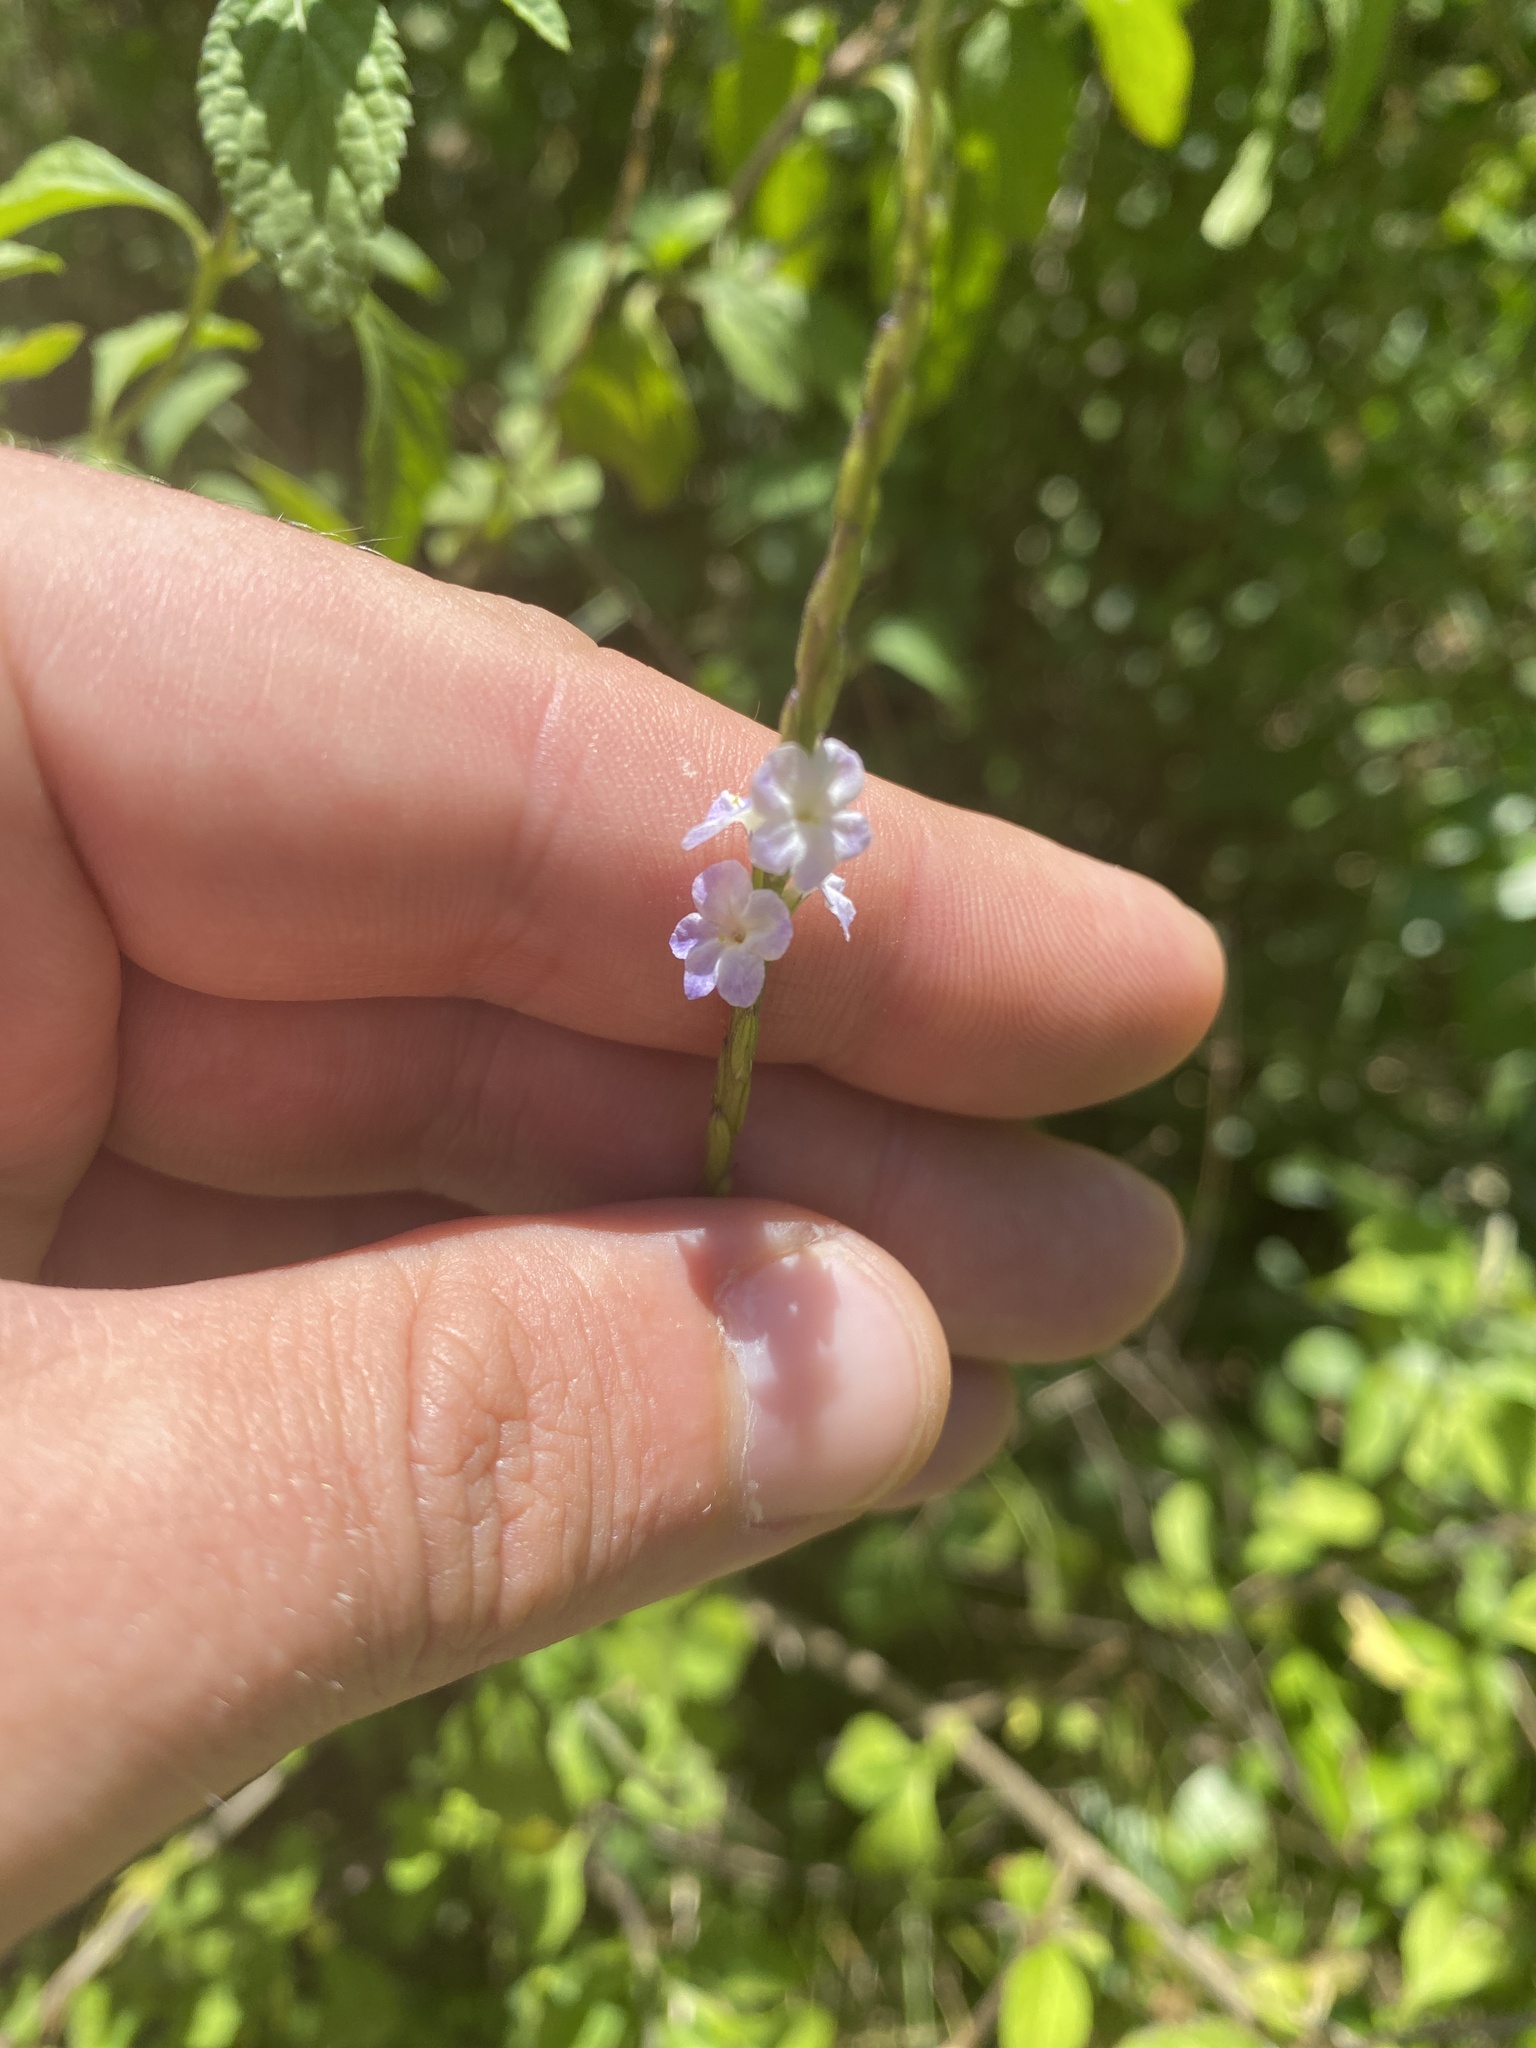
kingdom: Plantae
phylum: Tracheophyta
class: Magnoliopsida
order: Lamiales
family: Verbenaceae
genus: Stachytarpheta
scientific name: Stachytarpheta cayennensis
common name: Cayenne porterweed
